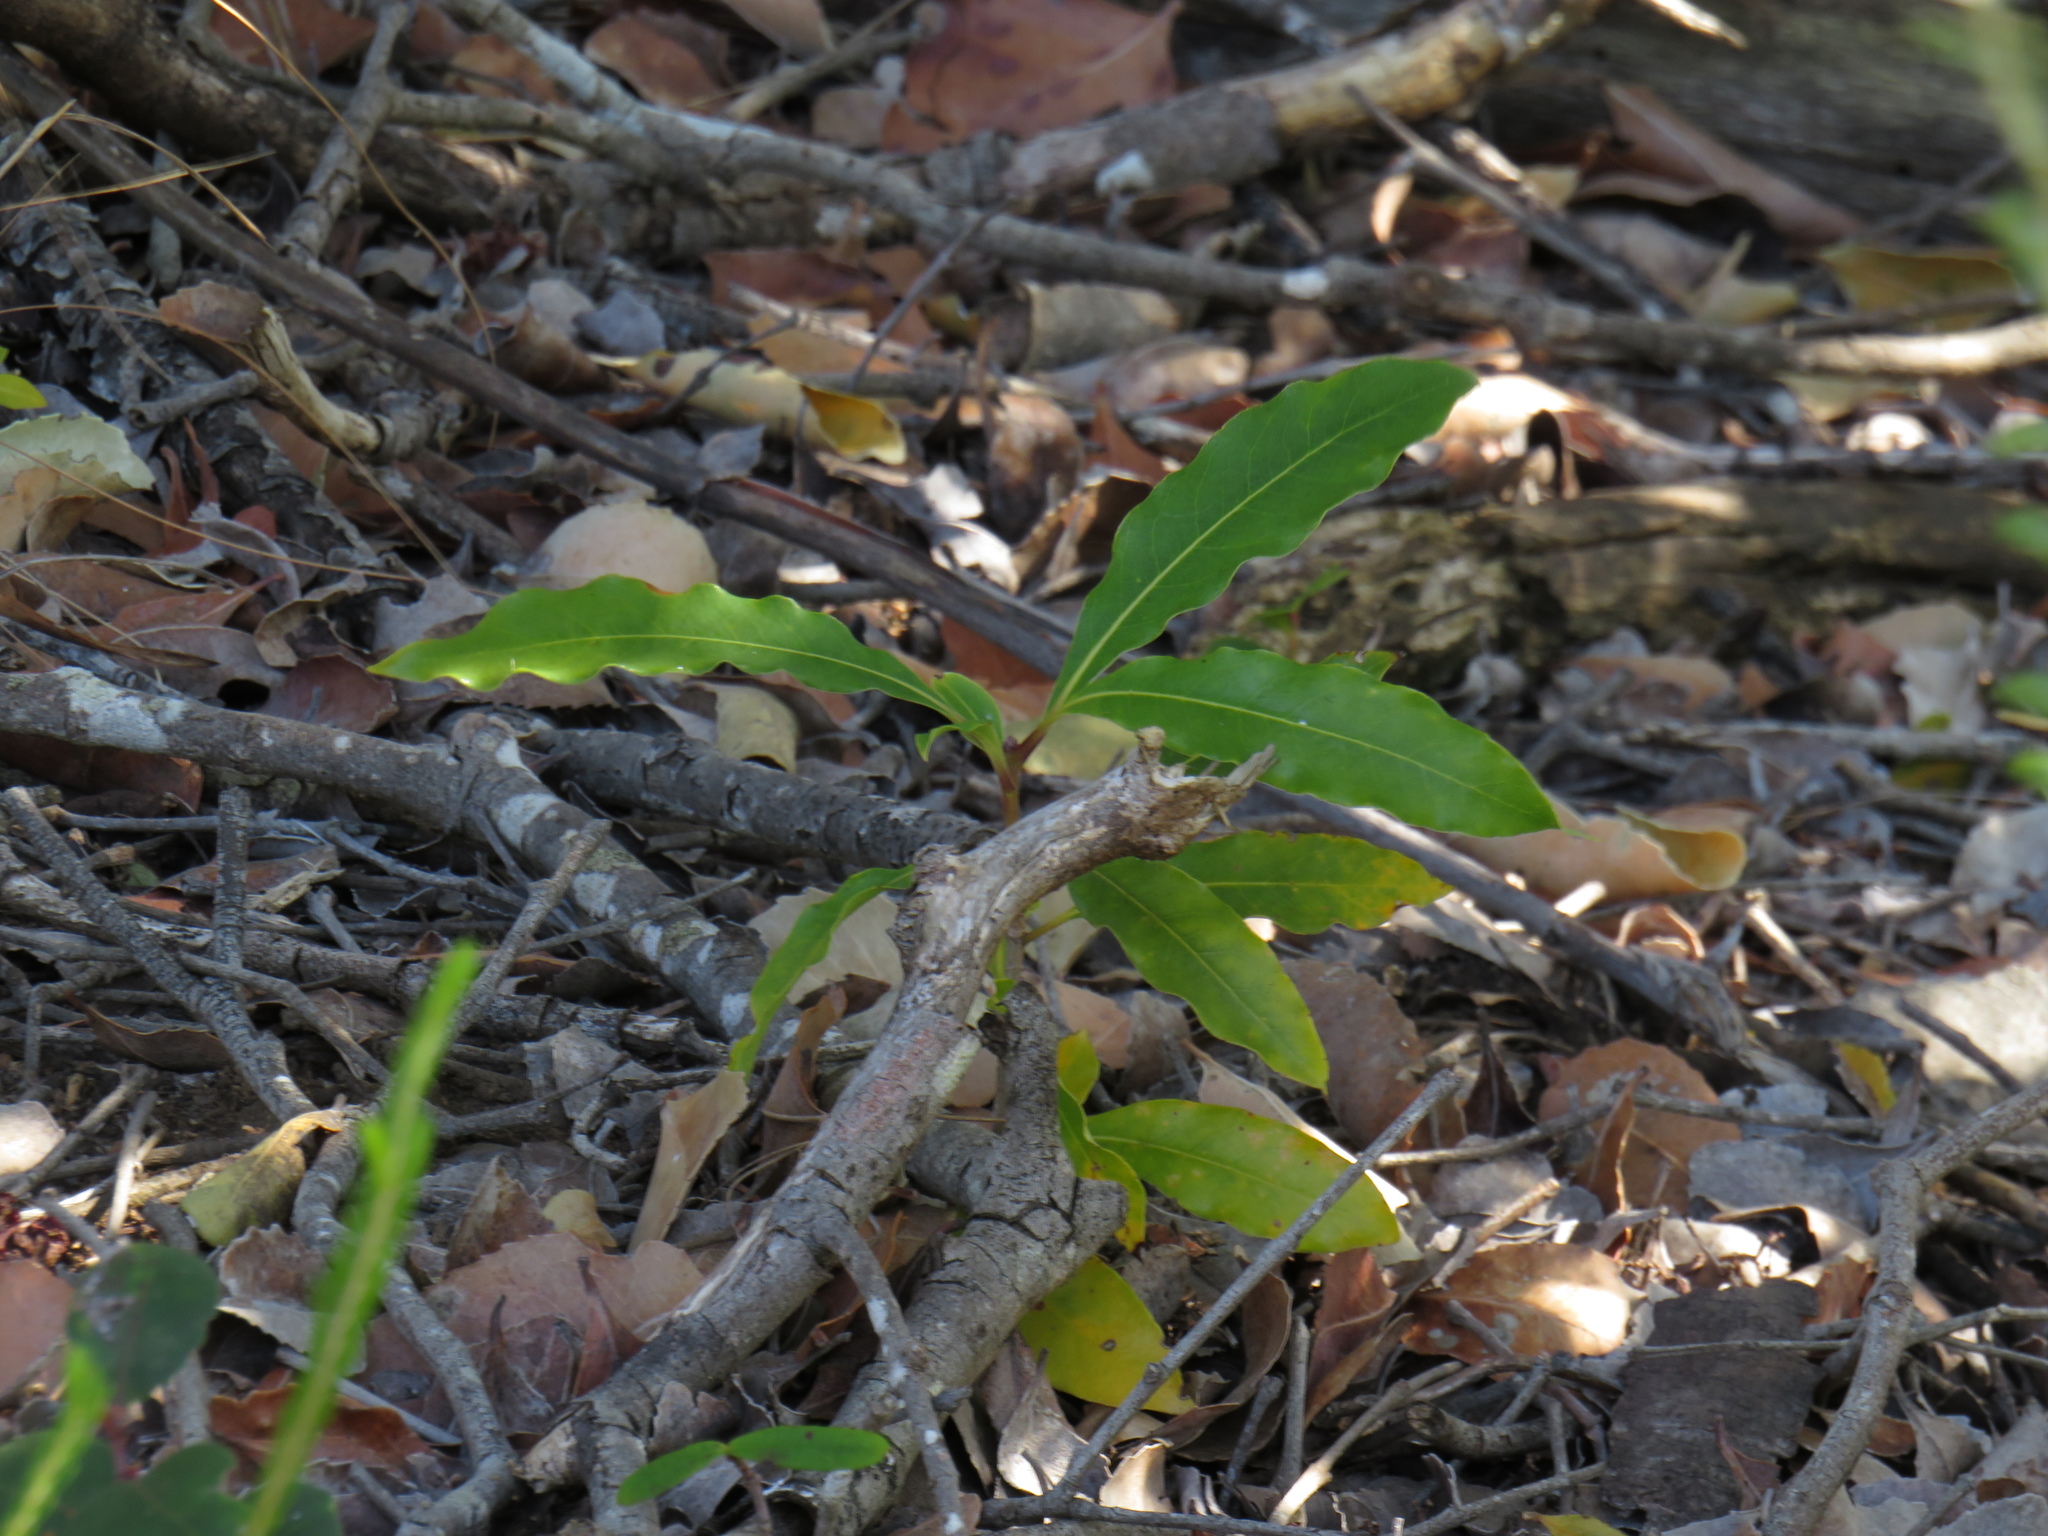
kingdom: Plantae
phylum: Tracheophyta
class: Magnoliopsida
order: Apiales
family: Pittosporaceae
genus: Pittosporum
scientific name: Pittosporum undulatum
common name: Australian cheesewood
